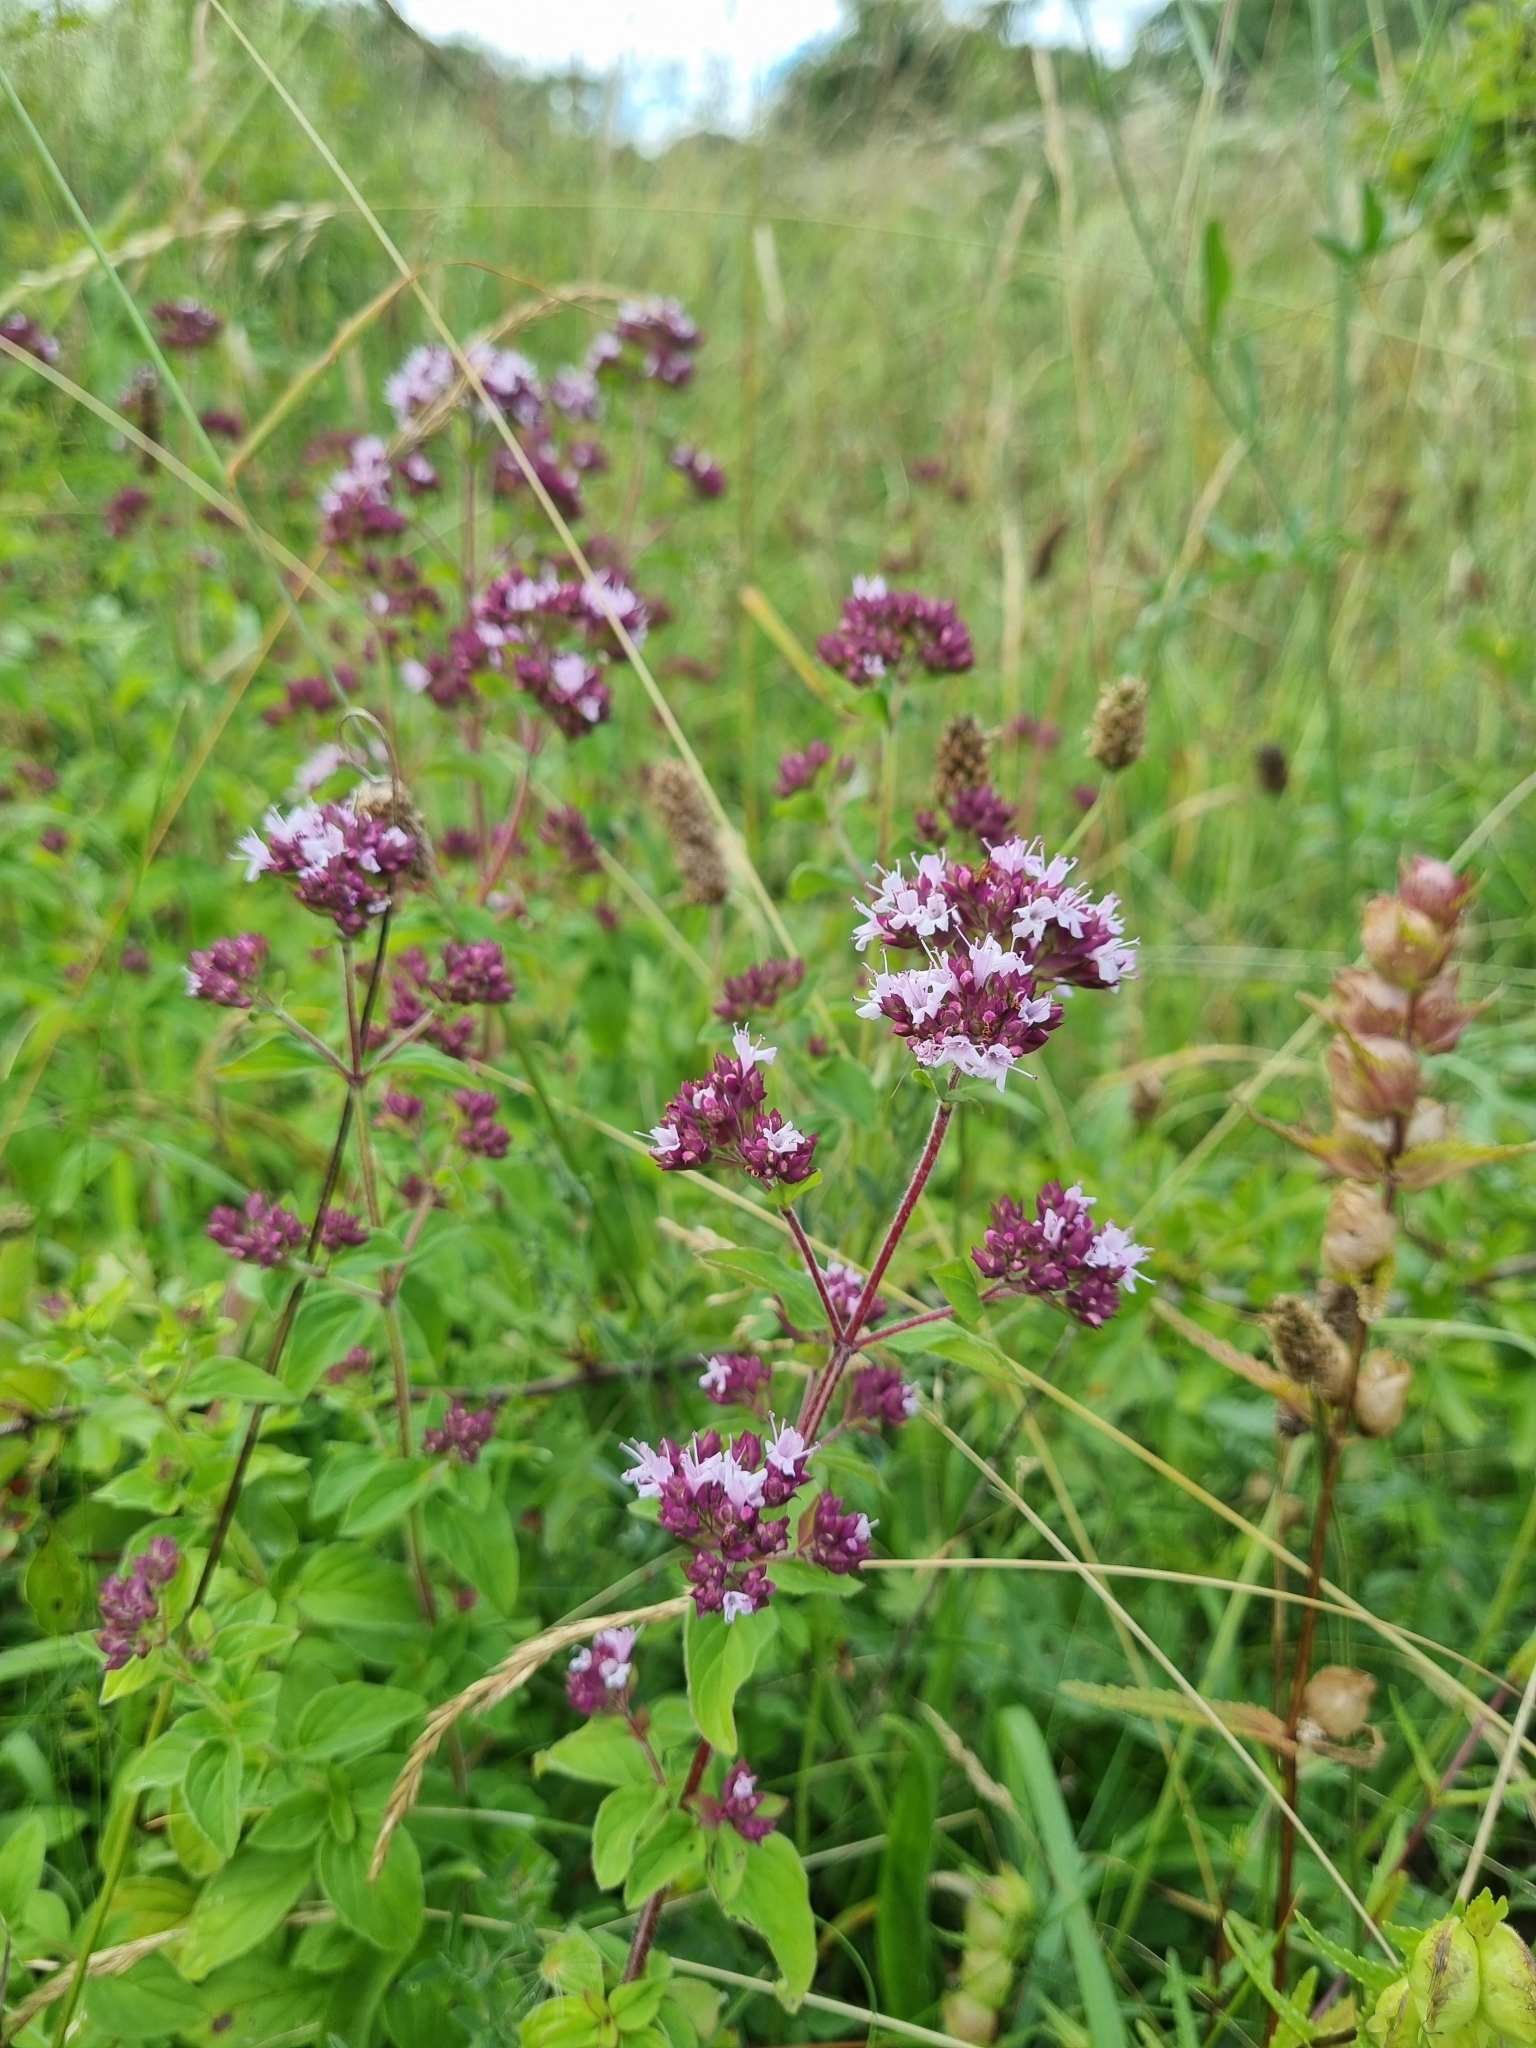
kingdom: Plantae
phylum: Tracheophyta
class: Magnoliopsida
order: Lamiales
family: Lamiaceae
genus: Origanum
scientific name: Origanum vulgare
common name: Wild marjoram
